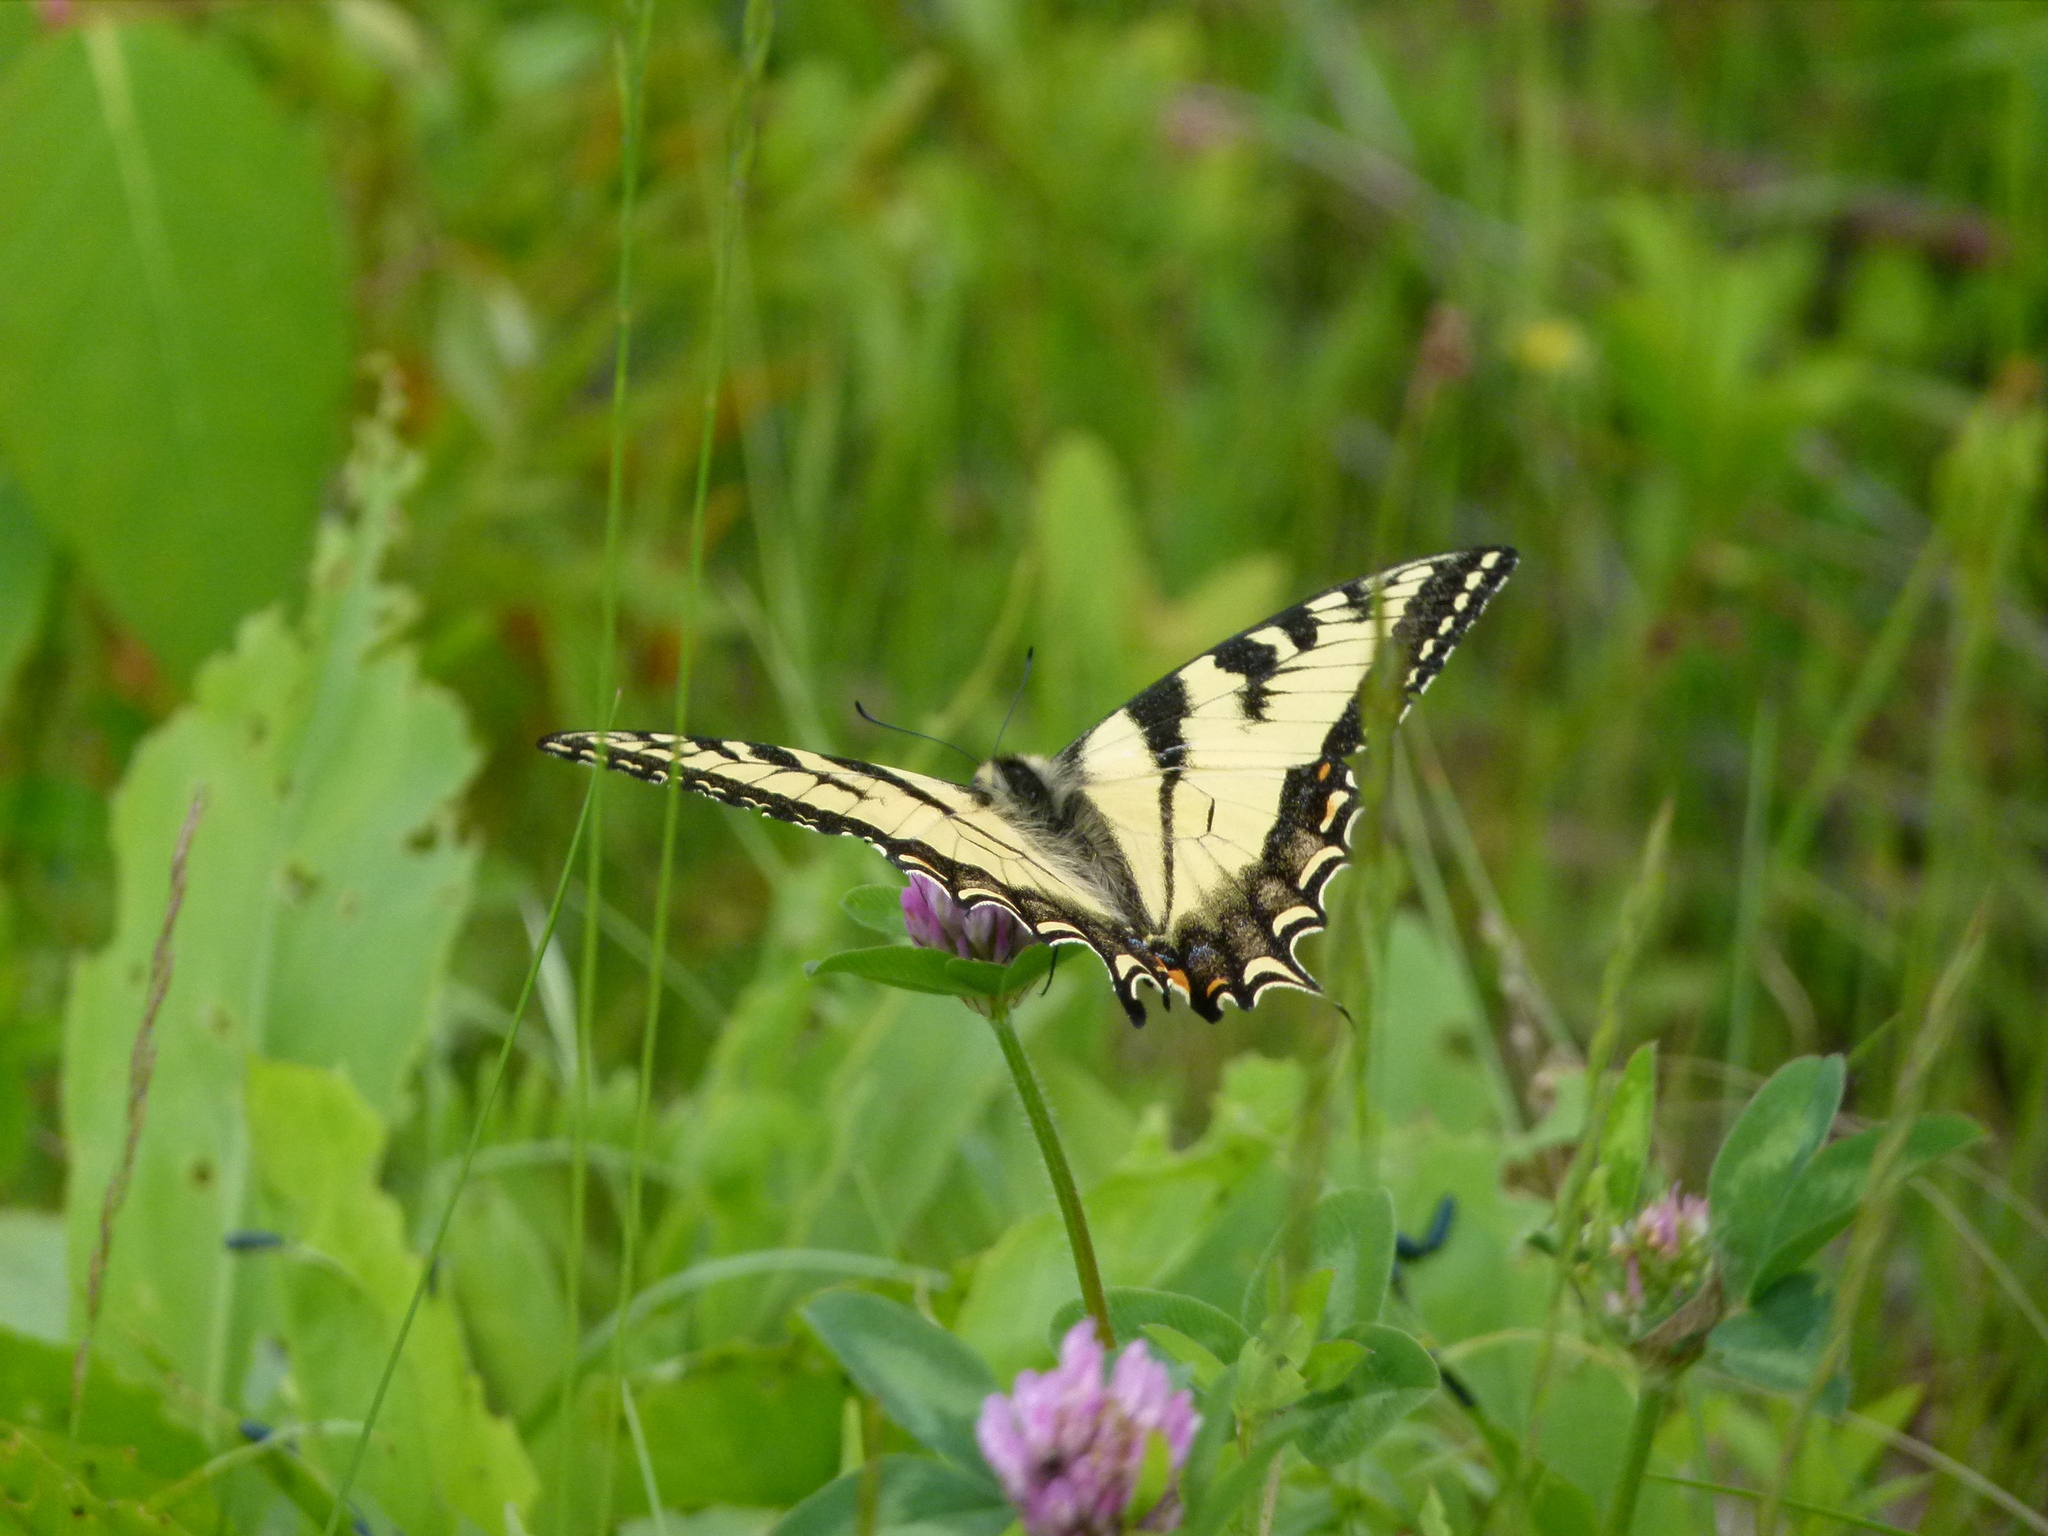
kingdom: Animalia
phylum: Arthropoda
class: Insecta
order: Lepidoptera
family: Papilionidae
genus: Papilio
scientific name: Papilio canadensis
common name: Canadian tiger swallowtail
